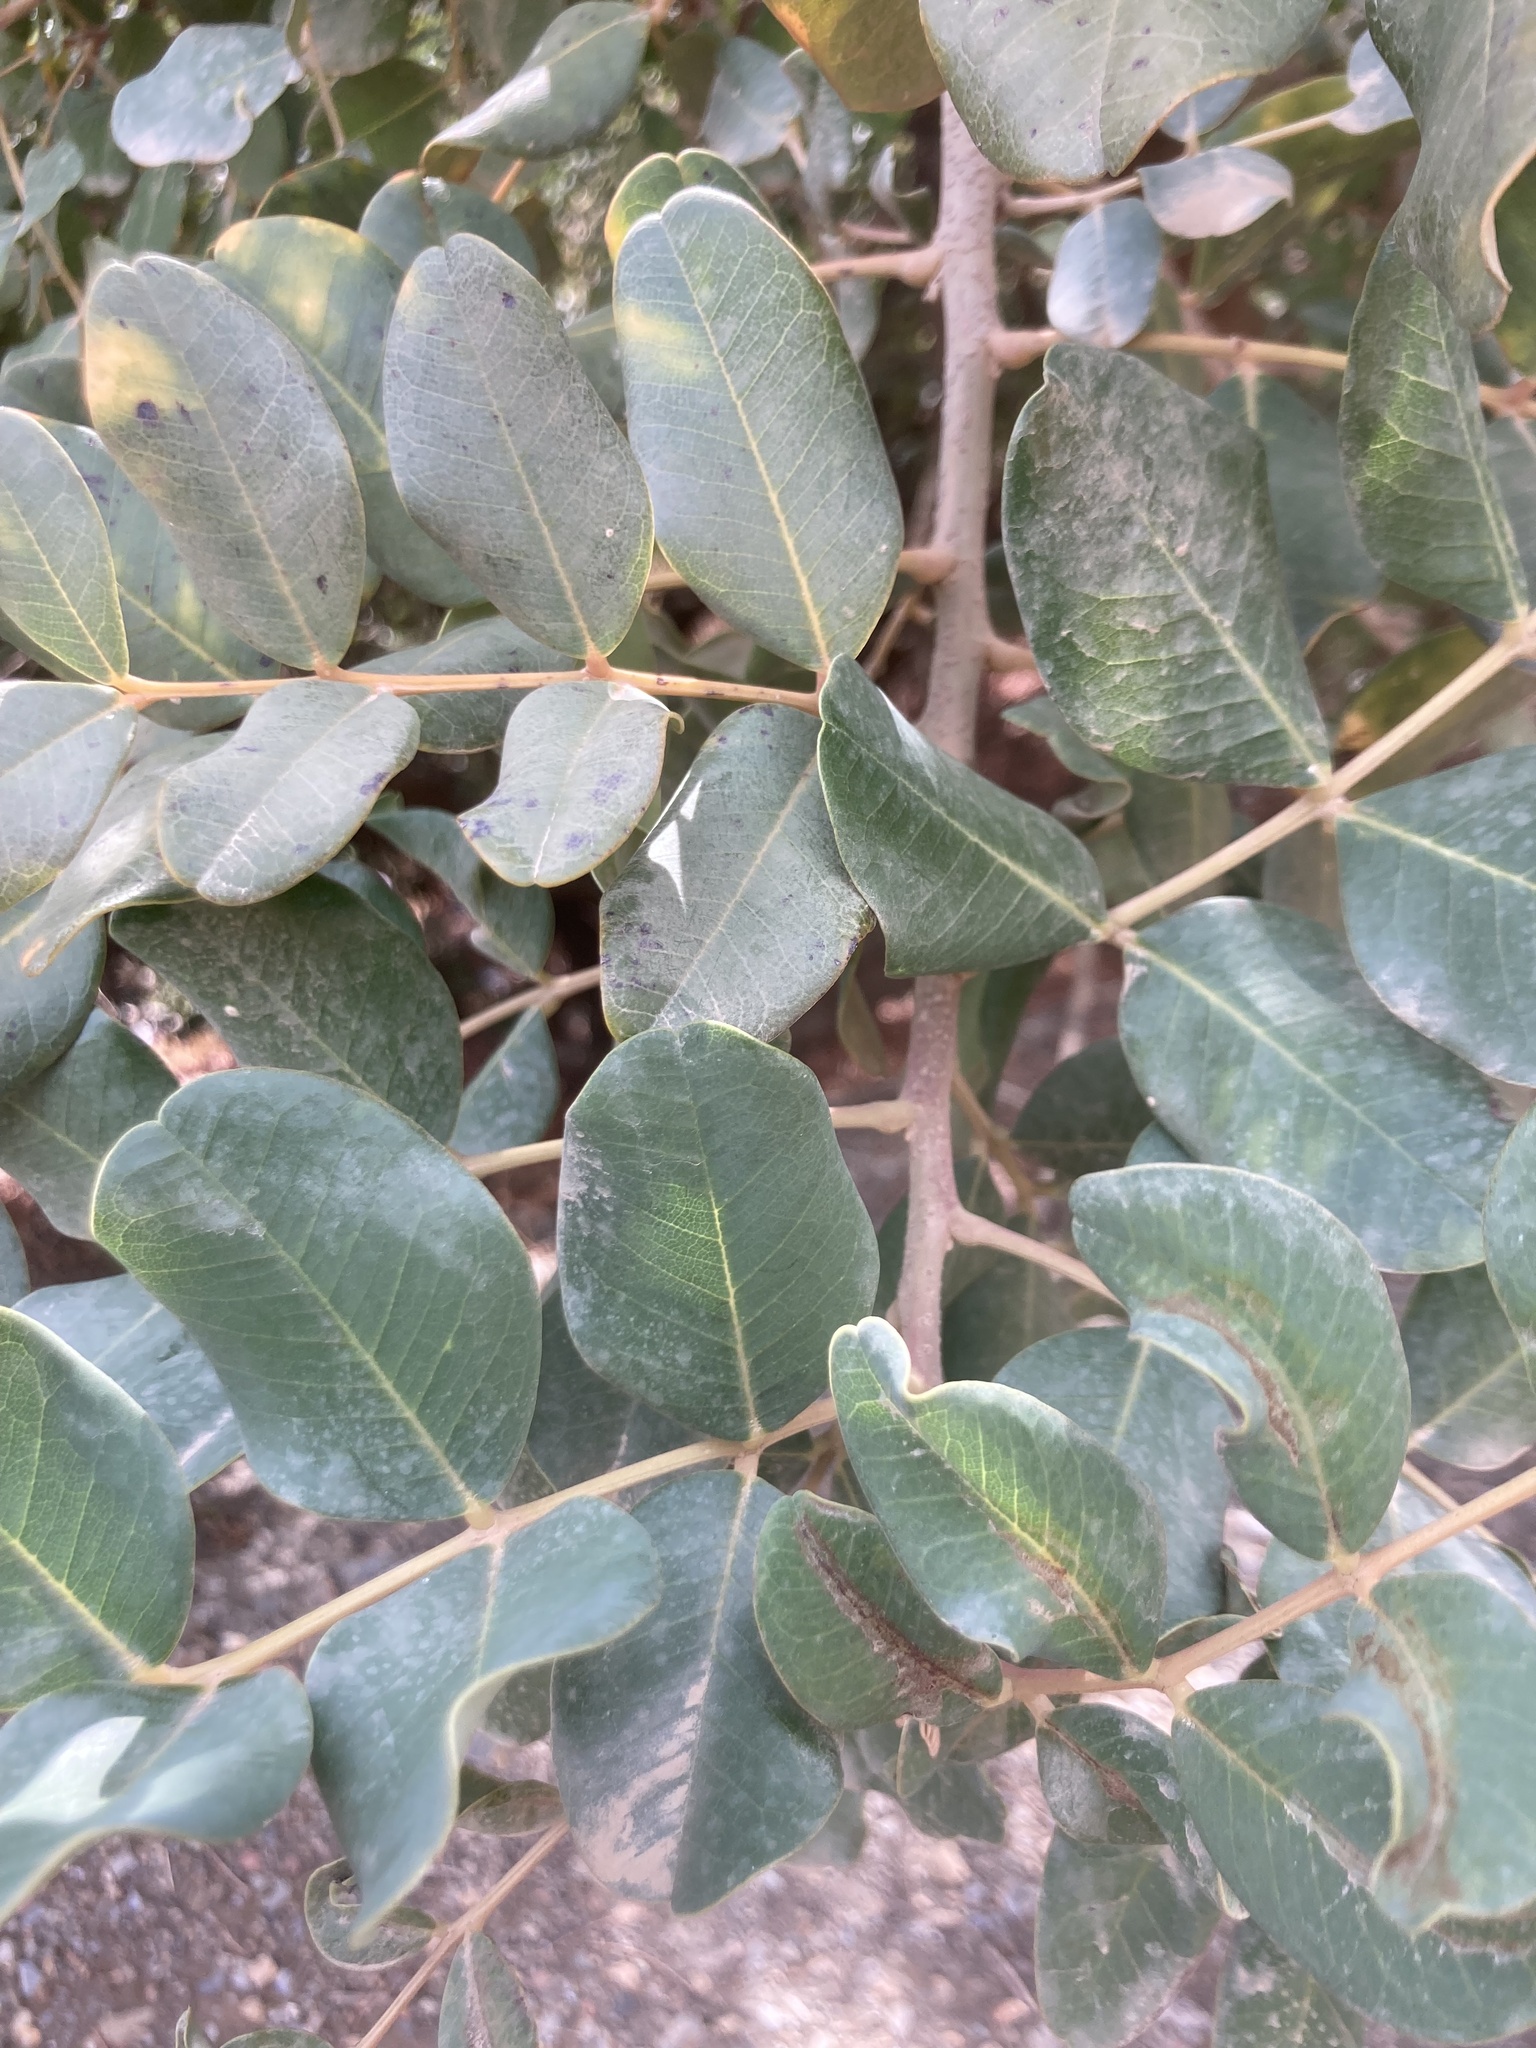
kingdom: Plantae
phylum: Tracheophyta
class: Magnoliopsida
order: Fabales
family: Fabaceae
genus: Ceratonia
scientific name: Ceratonia siliqua
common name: Carob
